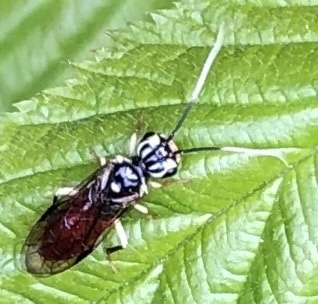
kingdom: Animalia
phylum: Arthropoda
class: Insecta
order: Hymenoptera
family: Pamphiliidae
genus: Onycholyda
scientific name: Onycholyda
